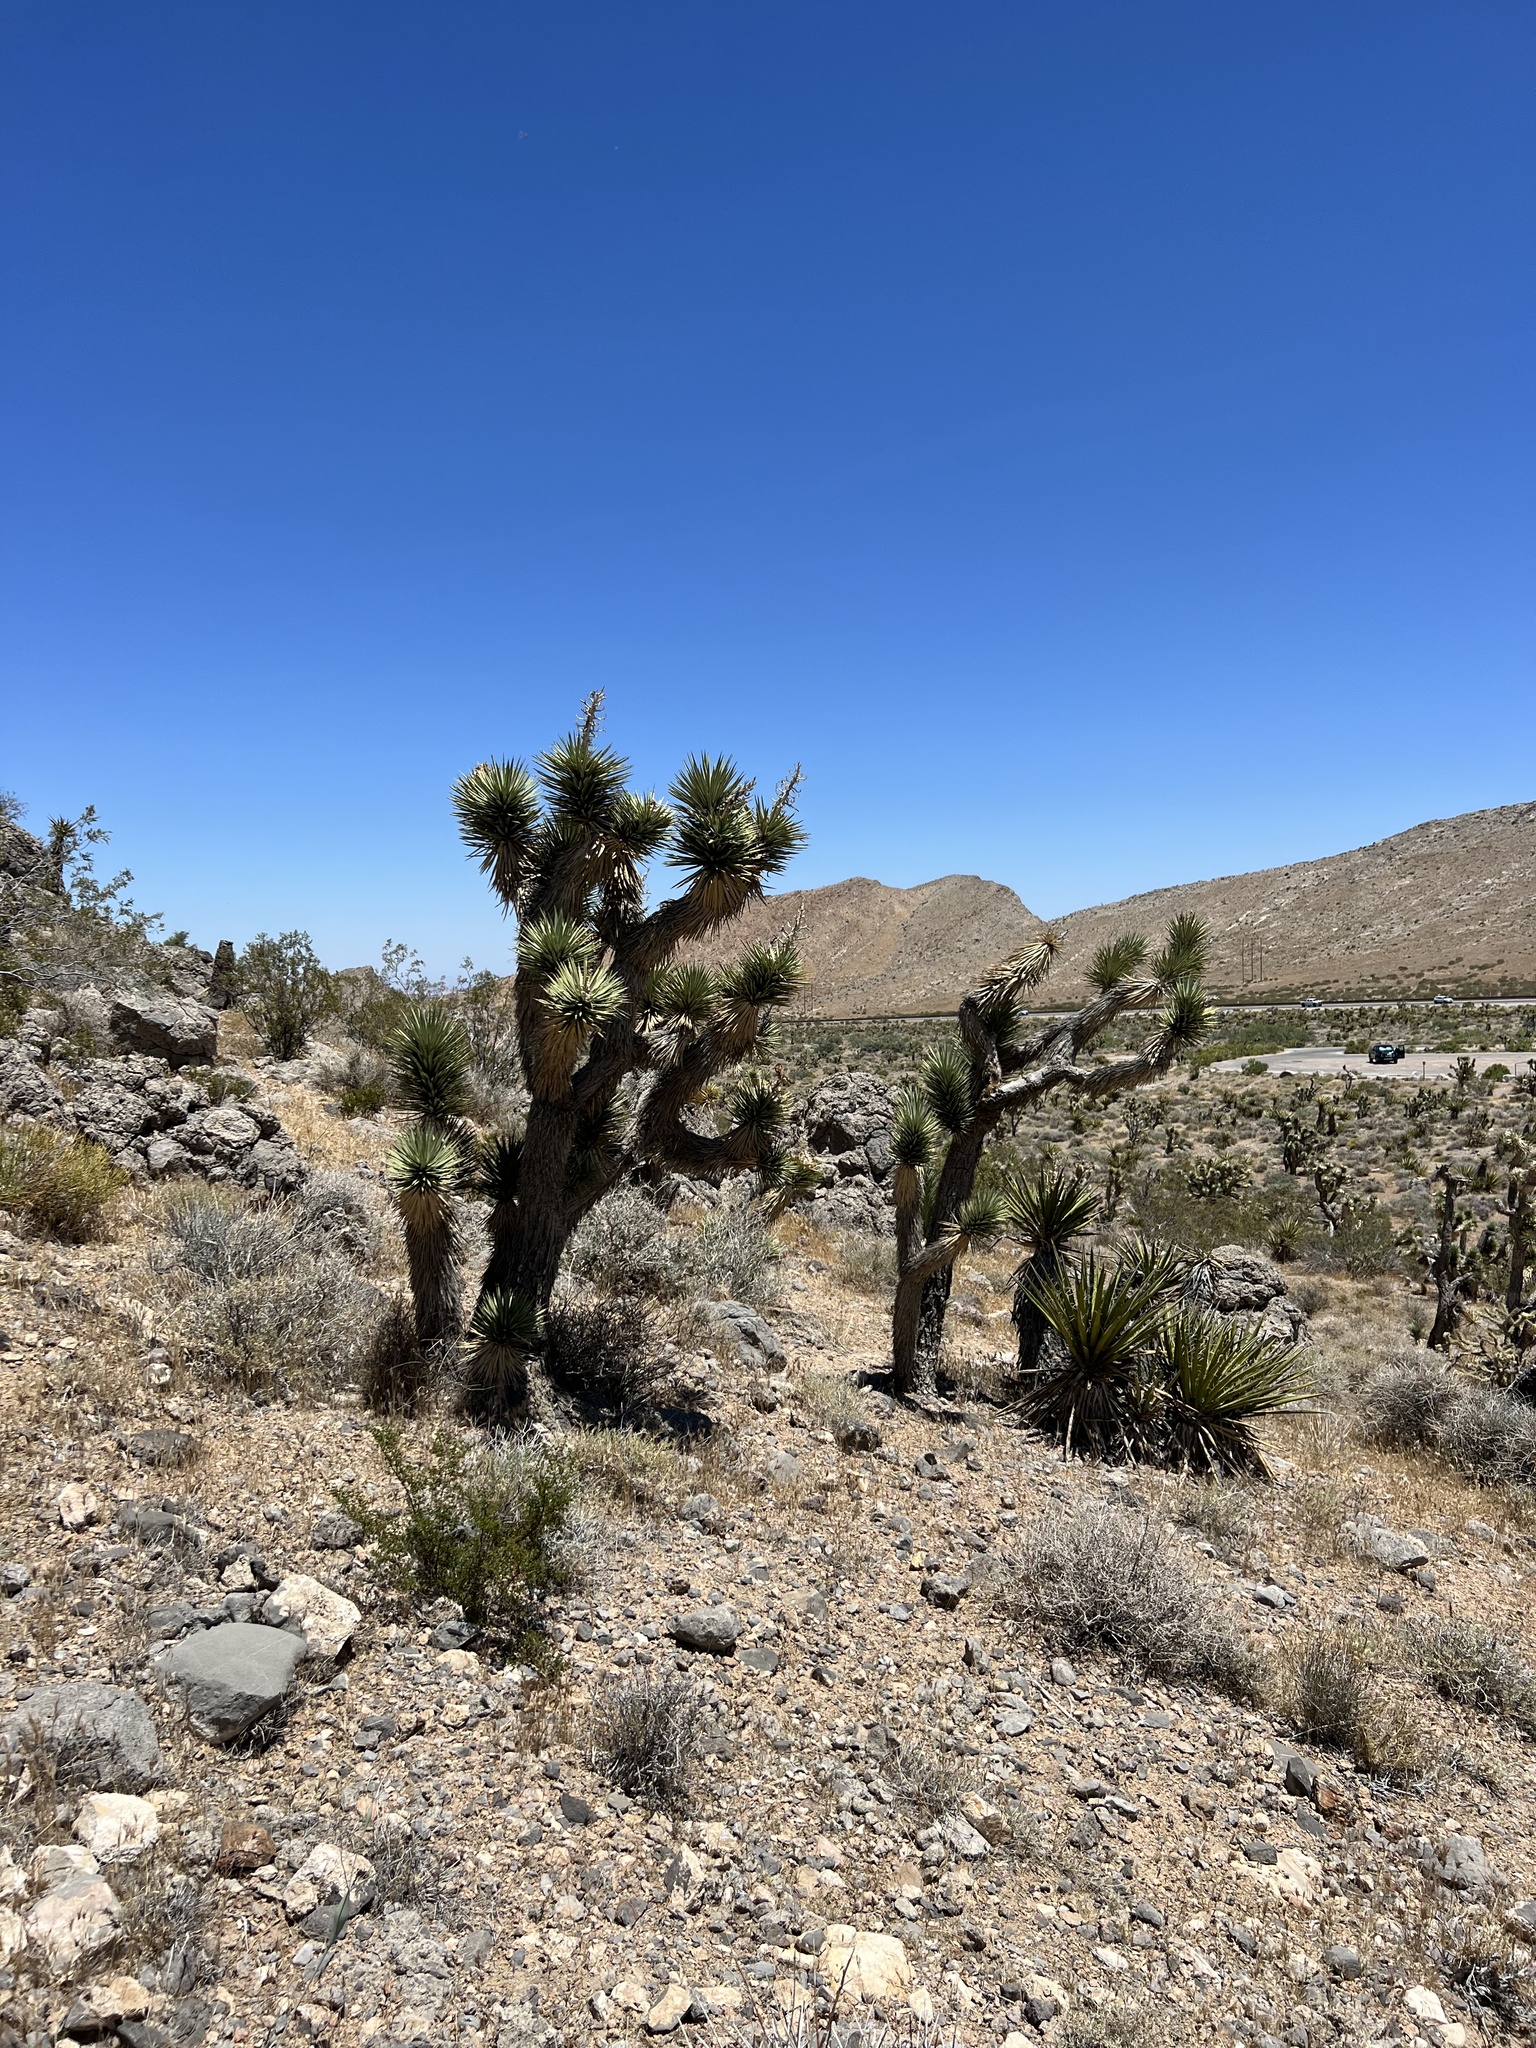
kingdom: Plantae
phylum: Tracheophyta
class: Liliopsida
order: Asparagales
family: Asparagaceae
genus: Yucca
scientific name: Yucca brevifolia
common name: Joshua tree
